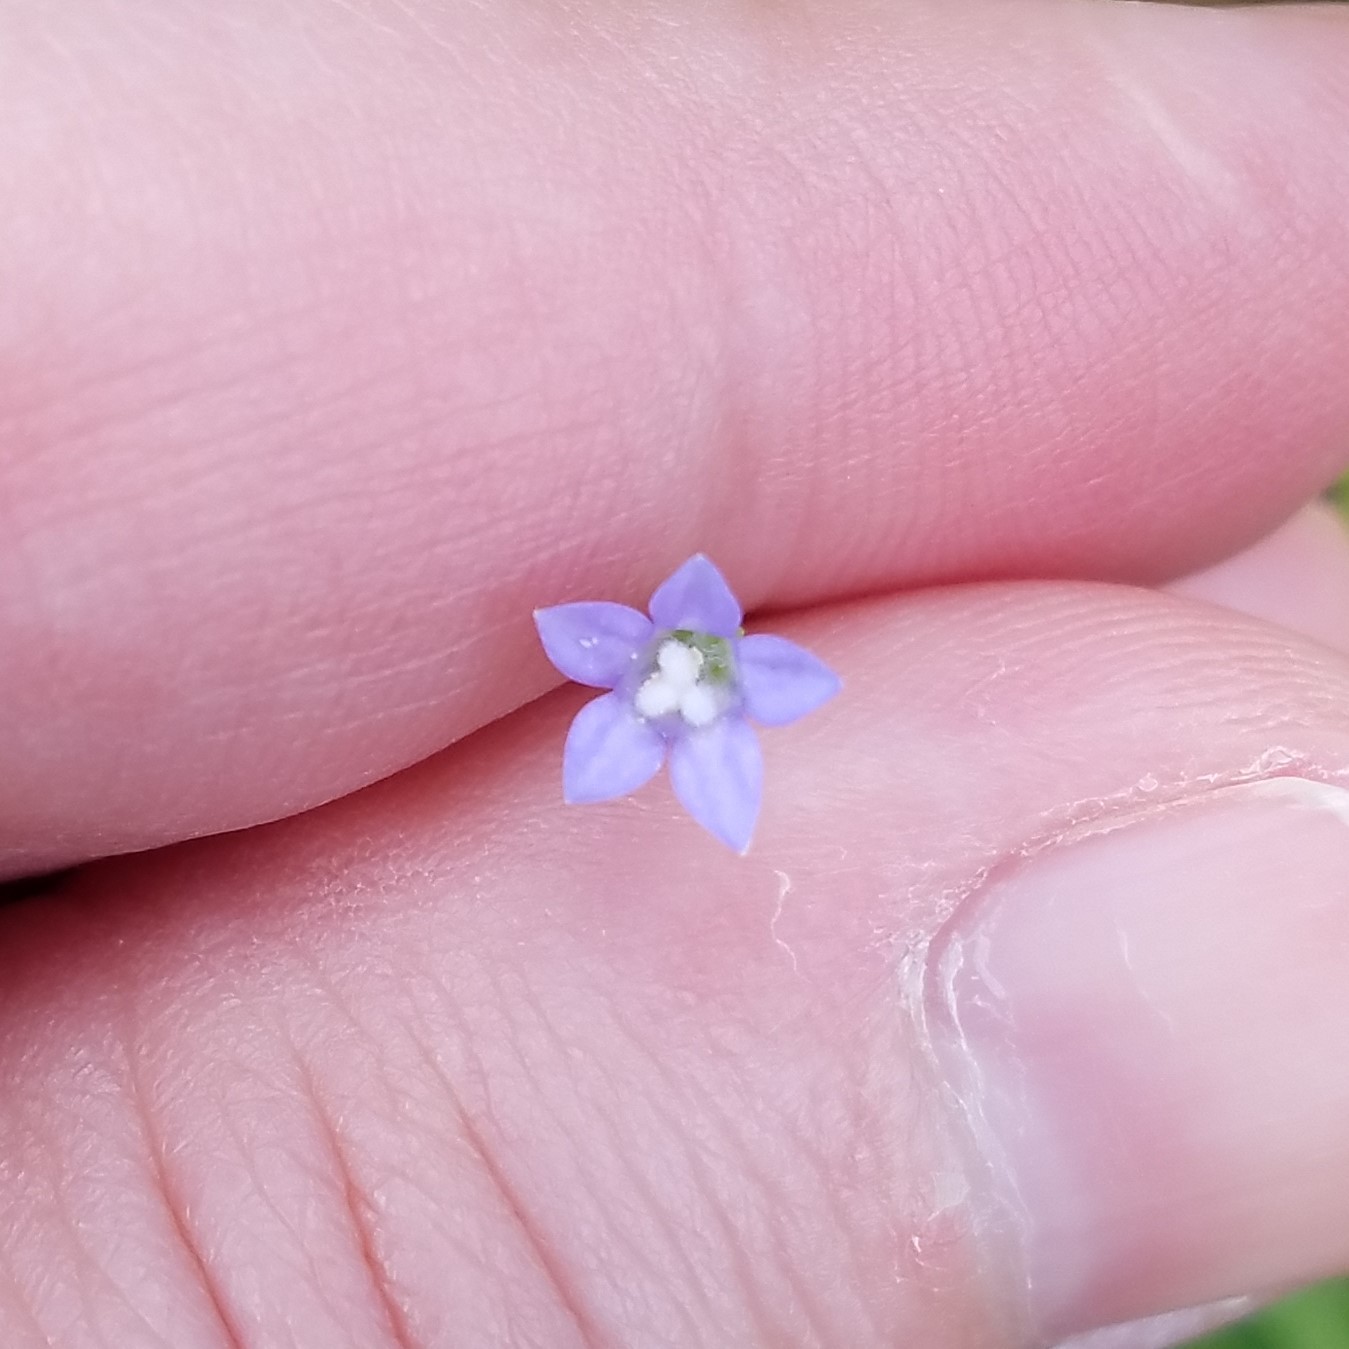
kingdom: Plantae
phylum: Tracheophyta
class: Magnoliopsida
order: Asterales
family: Campanulaceae
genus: Wahlenbergia
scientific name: Wahlenbergia marginata
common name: Southern rockbell
